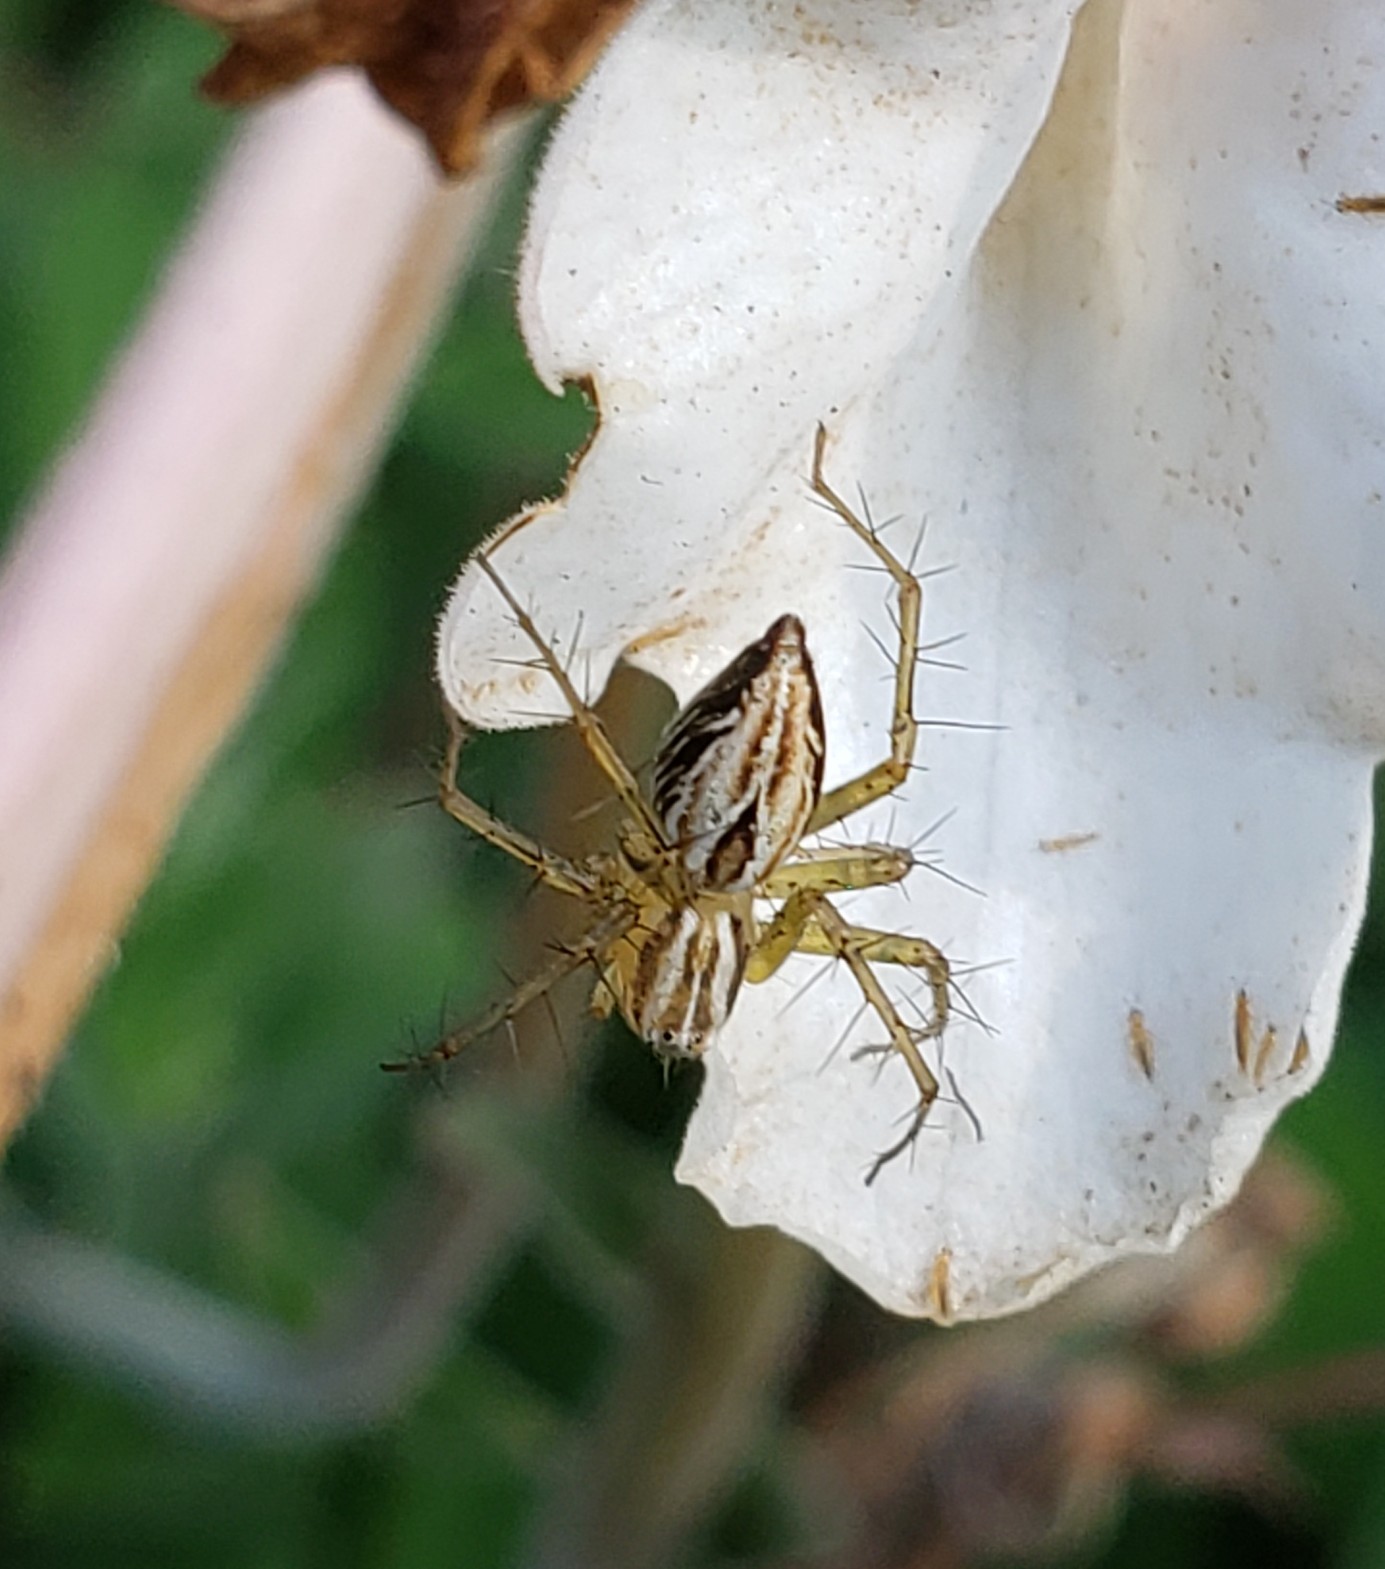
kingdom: Animalia
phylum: Arthropoda
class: Arachnida
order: Araneae
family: Oxyopidae
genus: Oxyopes
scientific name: Oxyopes salticus
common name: Lynx spiders
